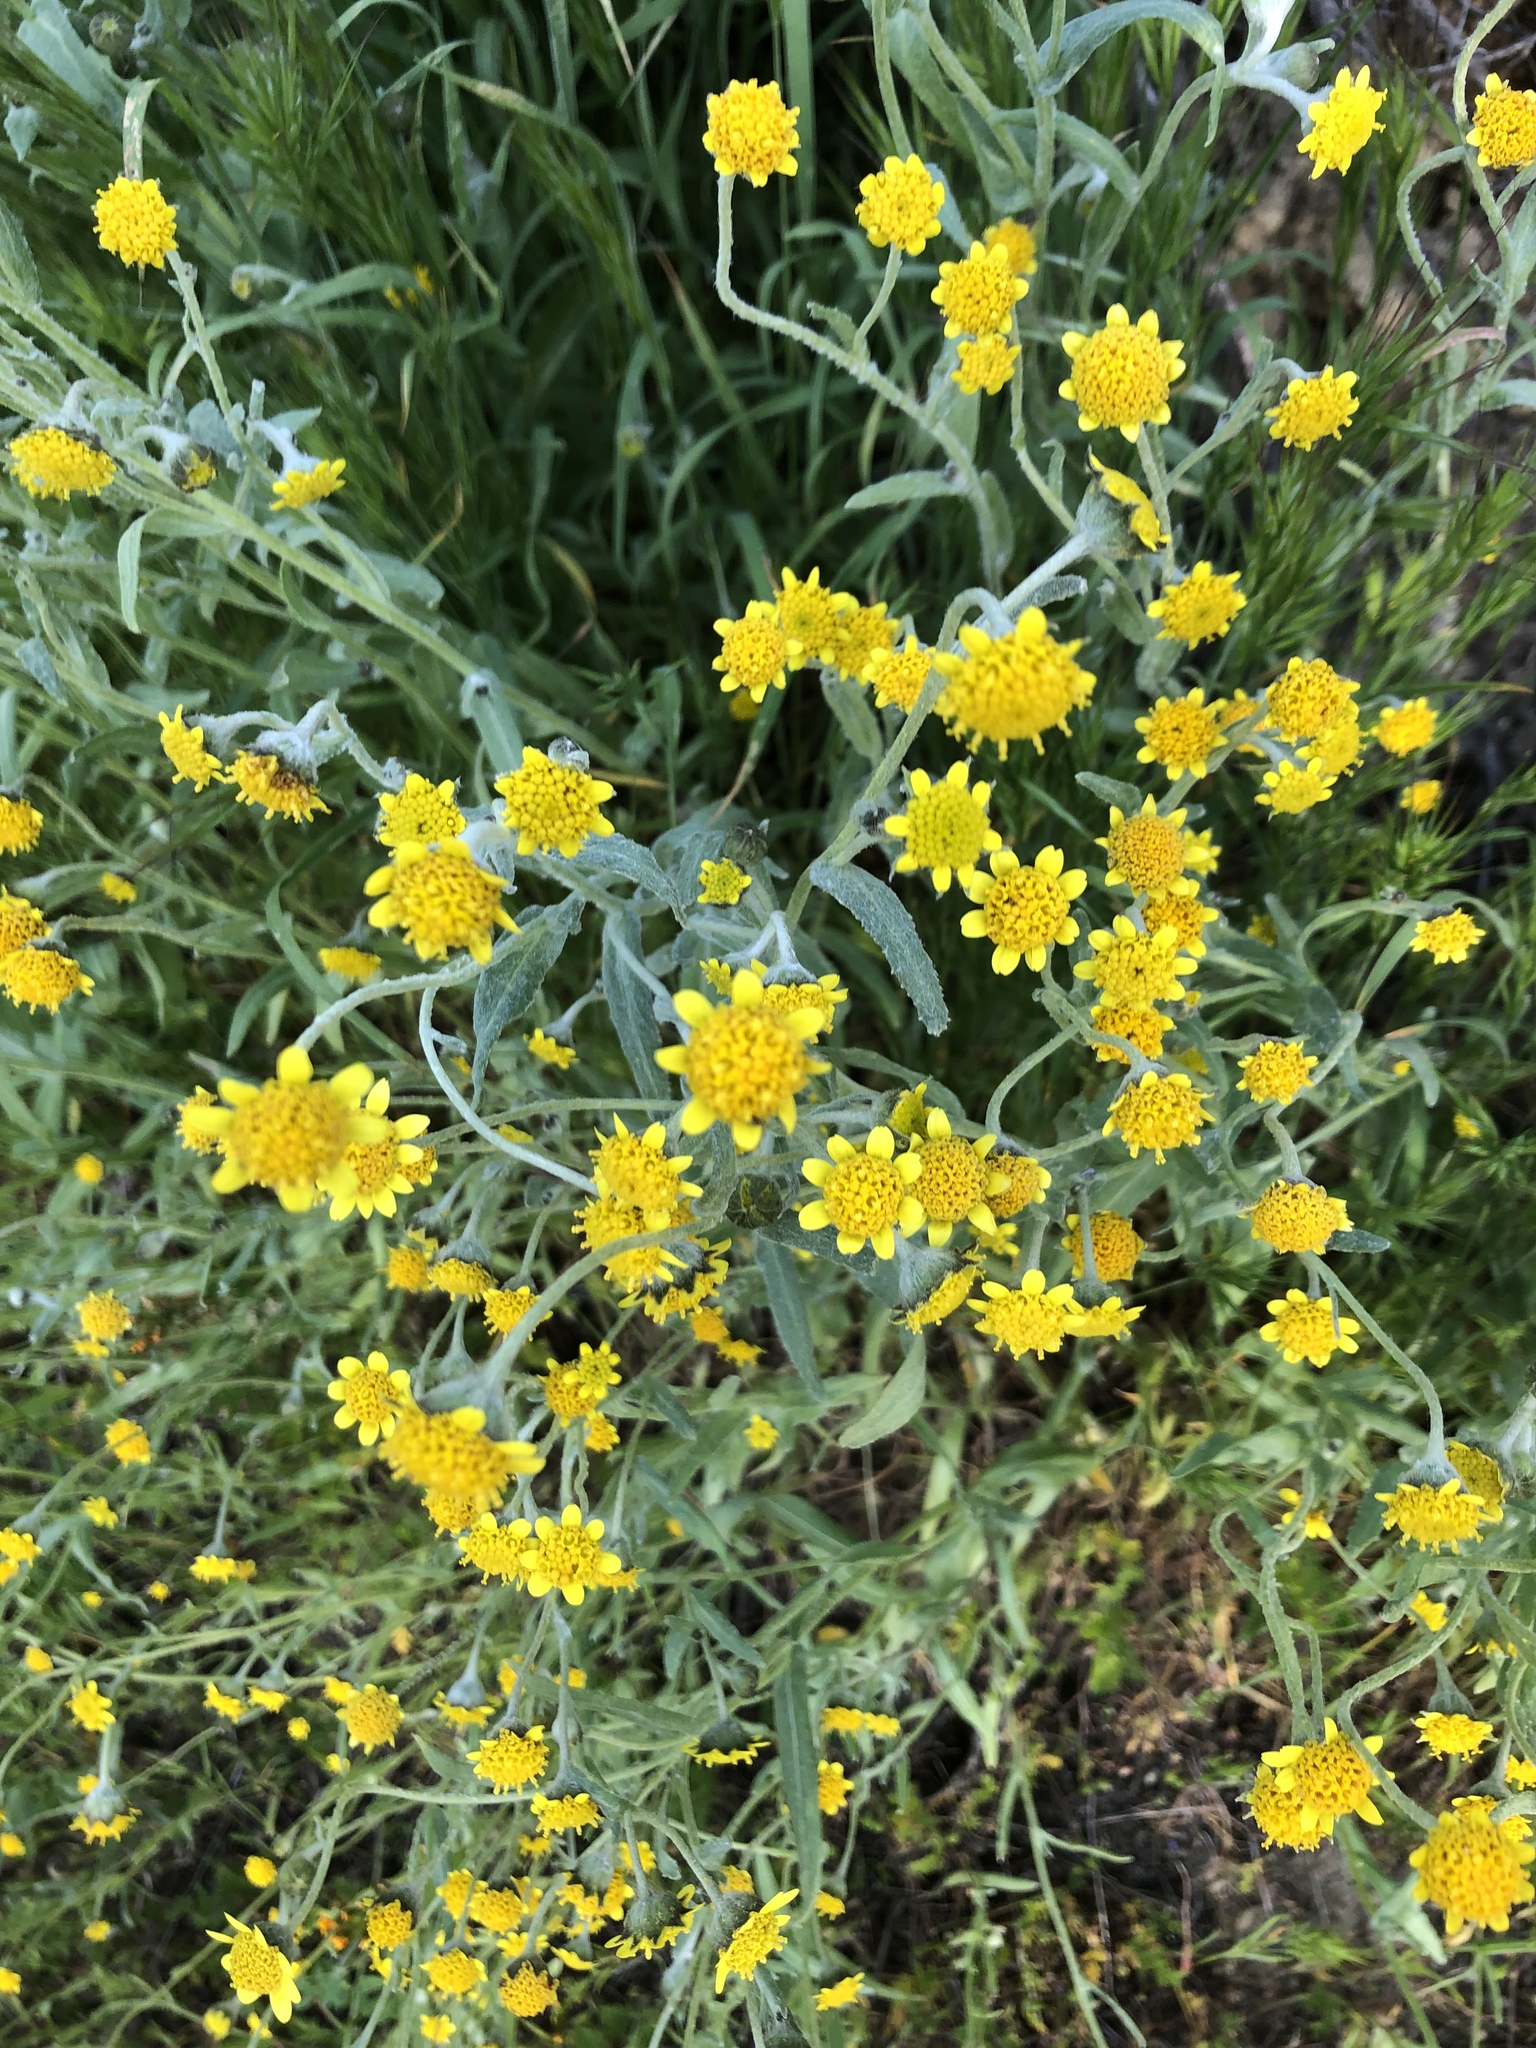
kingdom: Plantae
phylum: Tracheophyta
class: Magnoliopsida
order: Asterales
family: Asteraceae
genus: Monolopia
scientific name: Monolopia stricta
